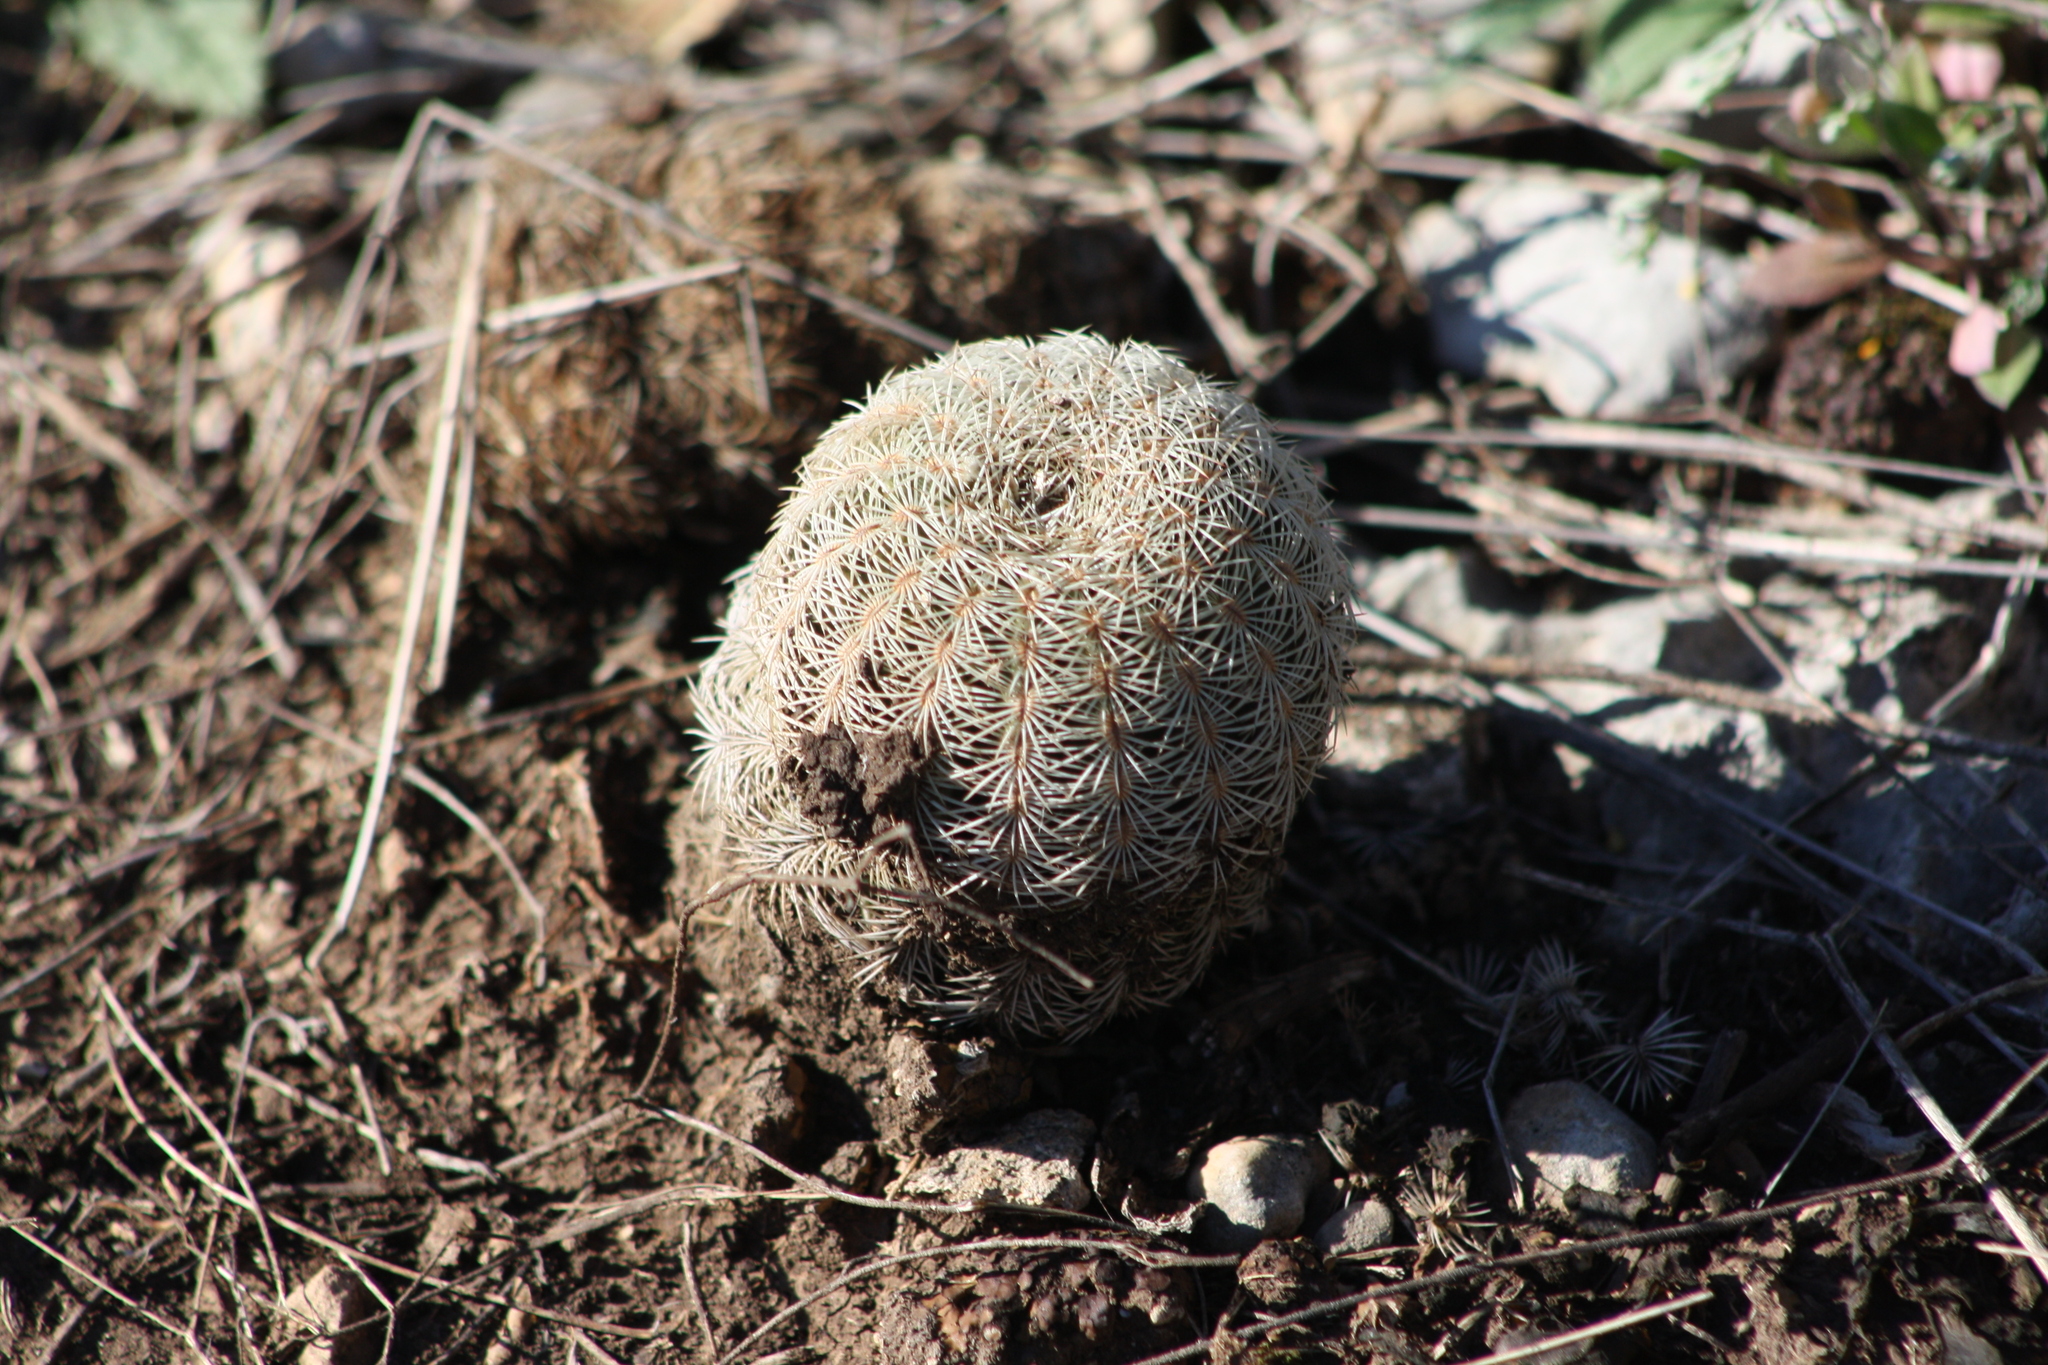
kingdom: Plantae
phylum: Tracheophyta
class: Magnoliopsida
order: Caryophyllales
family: Cactaceae
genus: Echinocereus
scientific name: Echinocereus reichenbachii
